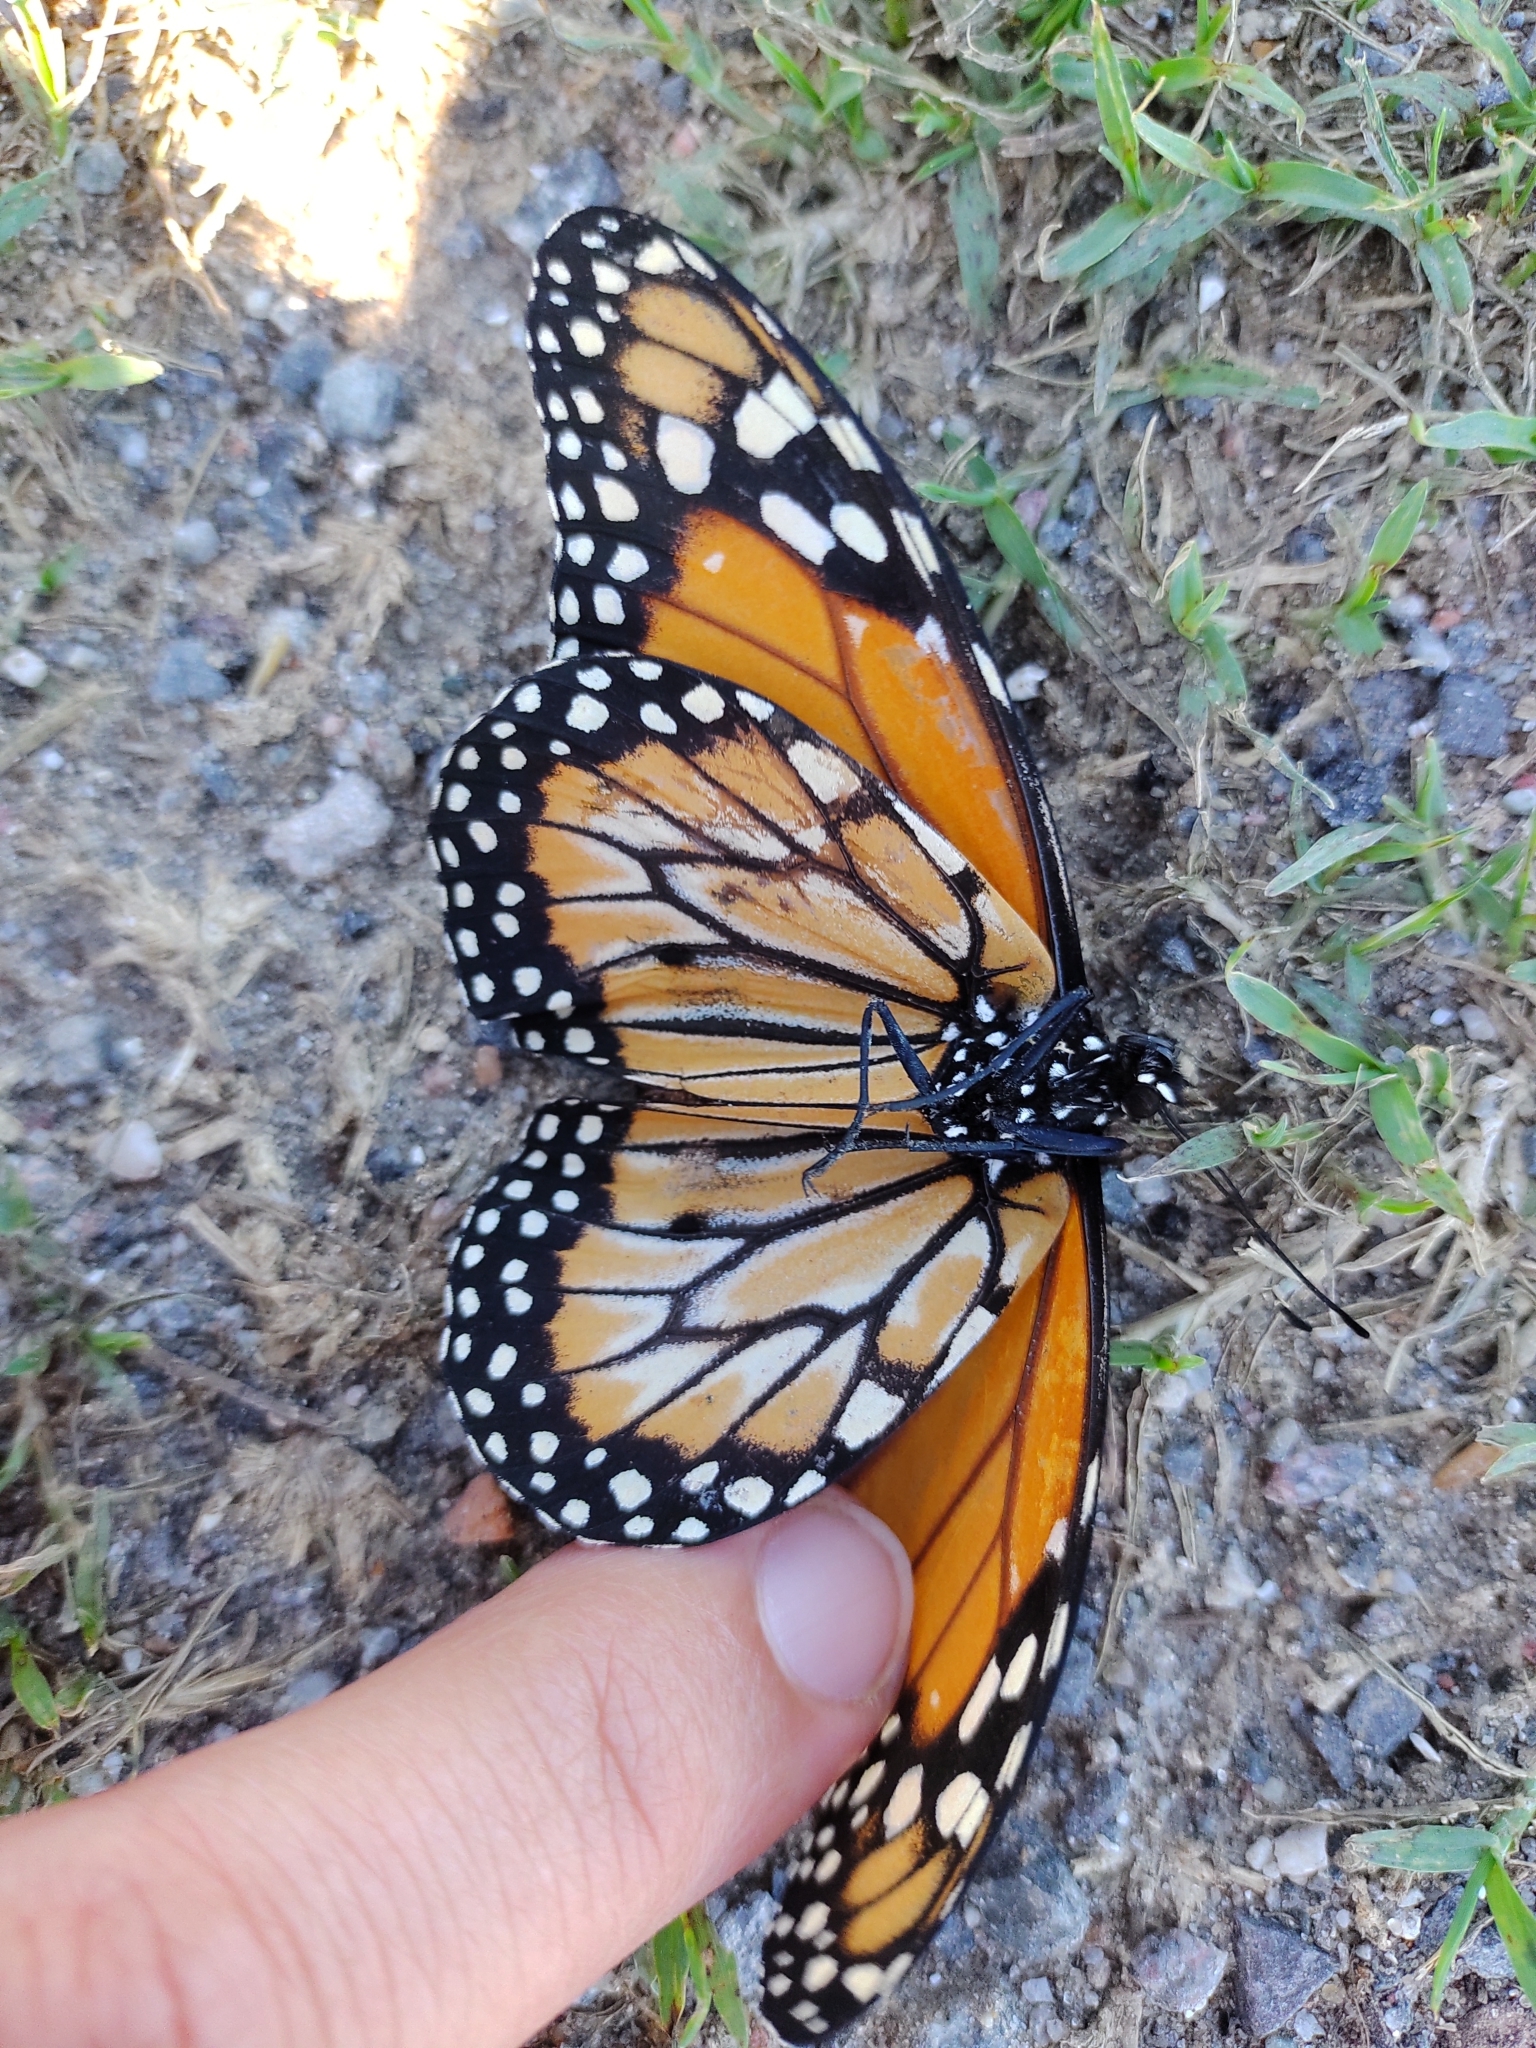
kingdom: Animalia
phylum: Arthropoda
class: Insecta
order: Lepidoptera
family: Nymphalidae
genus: Danaus
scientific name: Danaus erippus
